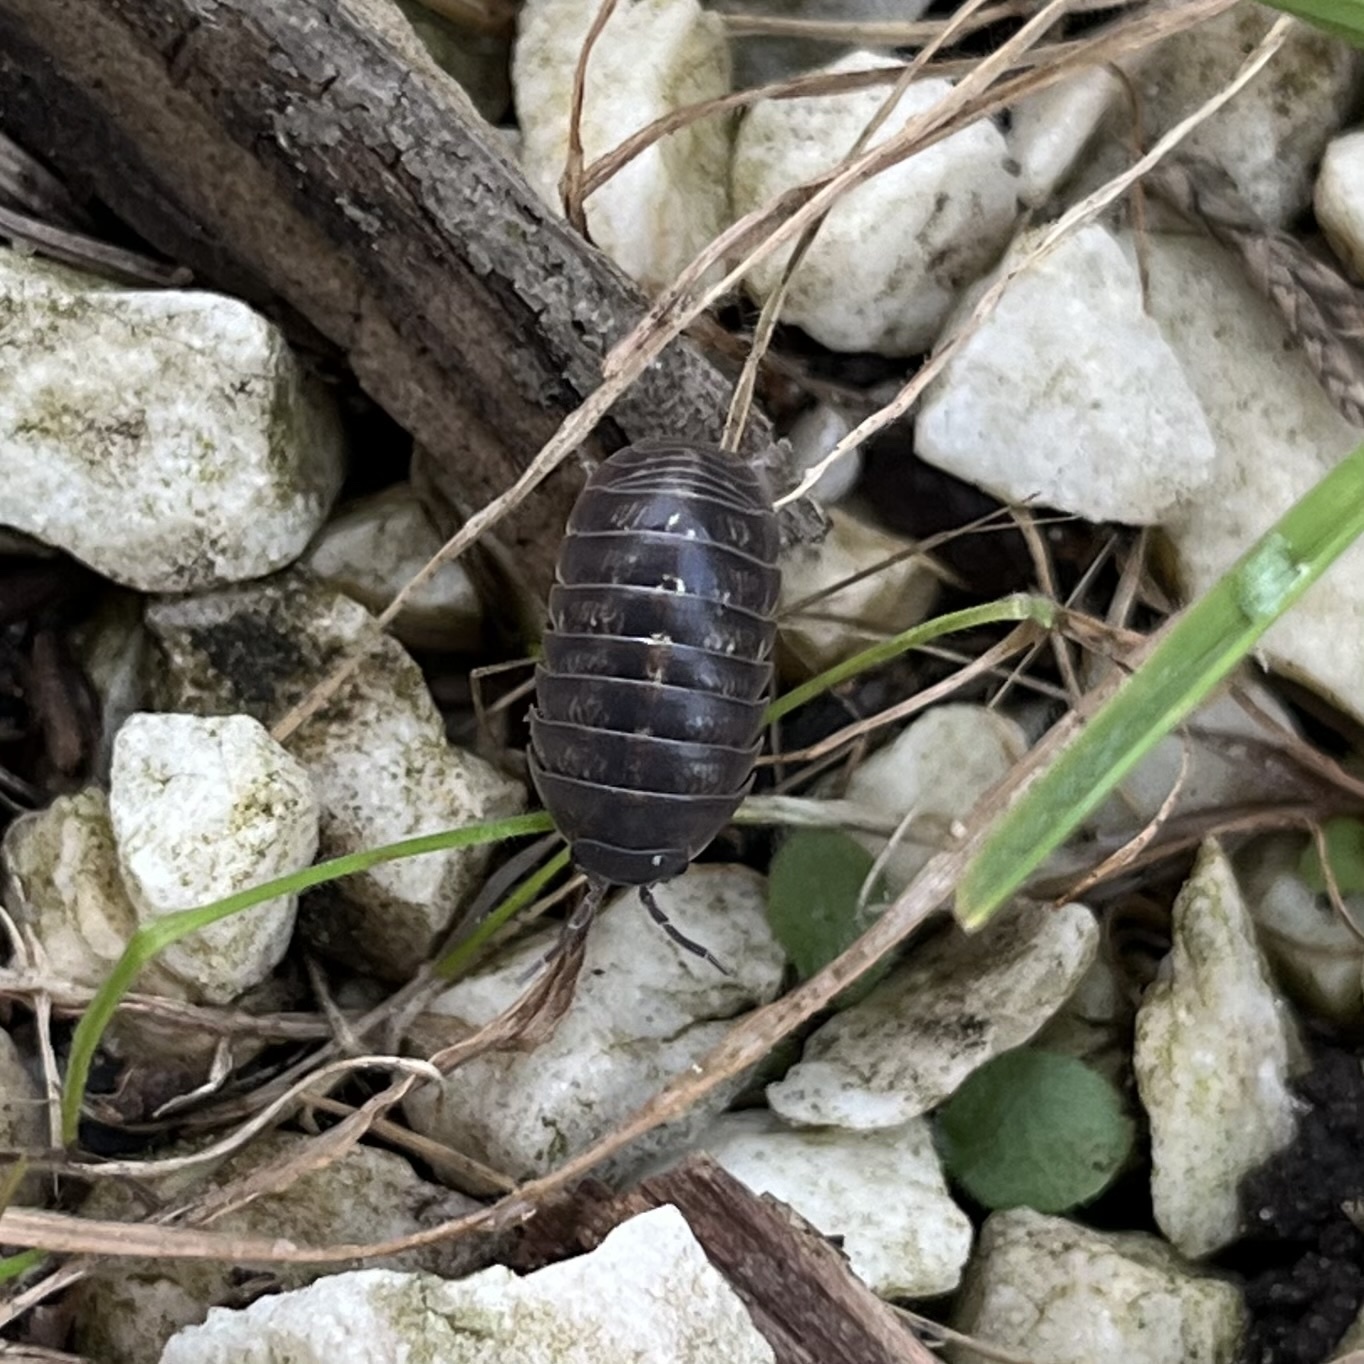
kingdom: Animalia
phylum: Arthropoda
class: Malacostraca
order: Isopoda
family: Armadillidiidae
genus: Armadillidium
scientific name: Armadillidium vulgare
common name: Common pill woodlouse
